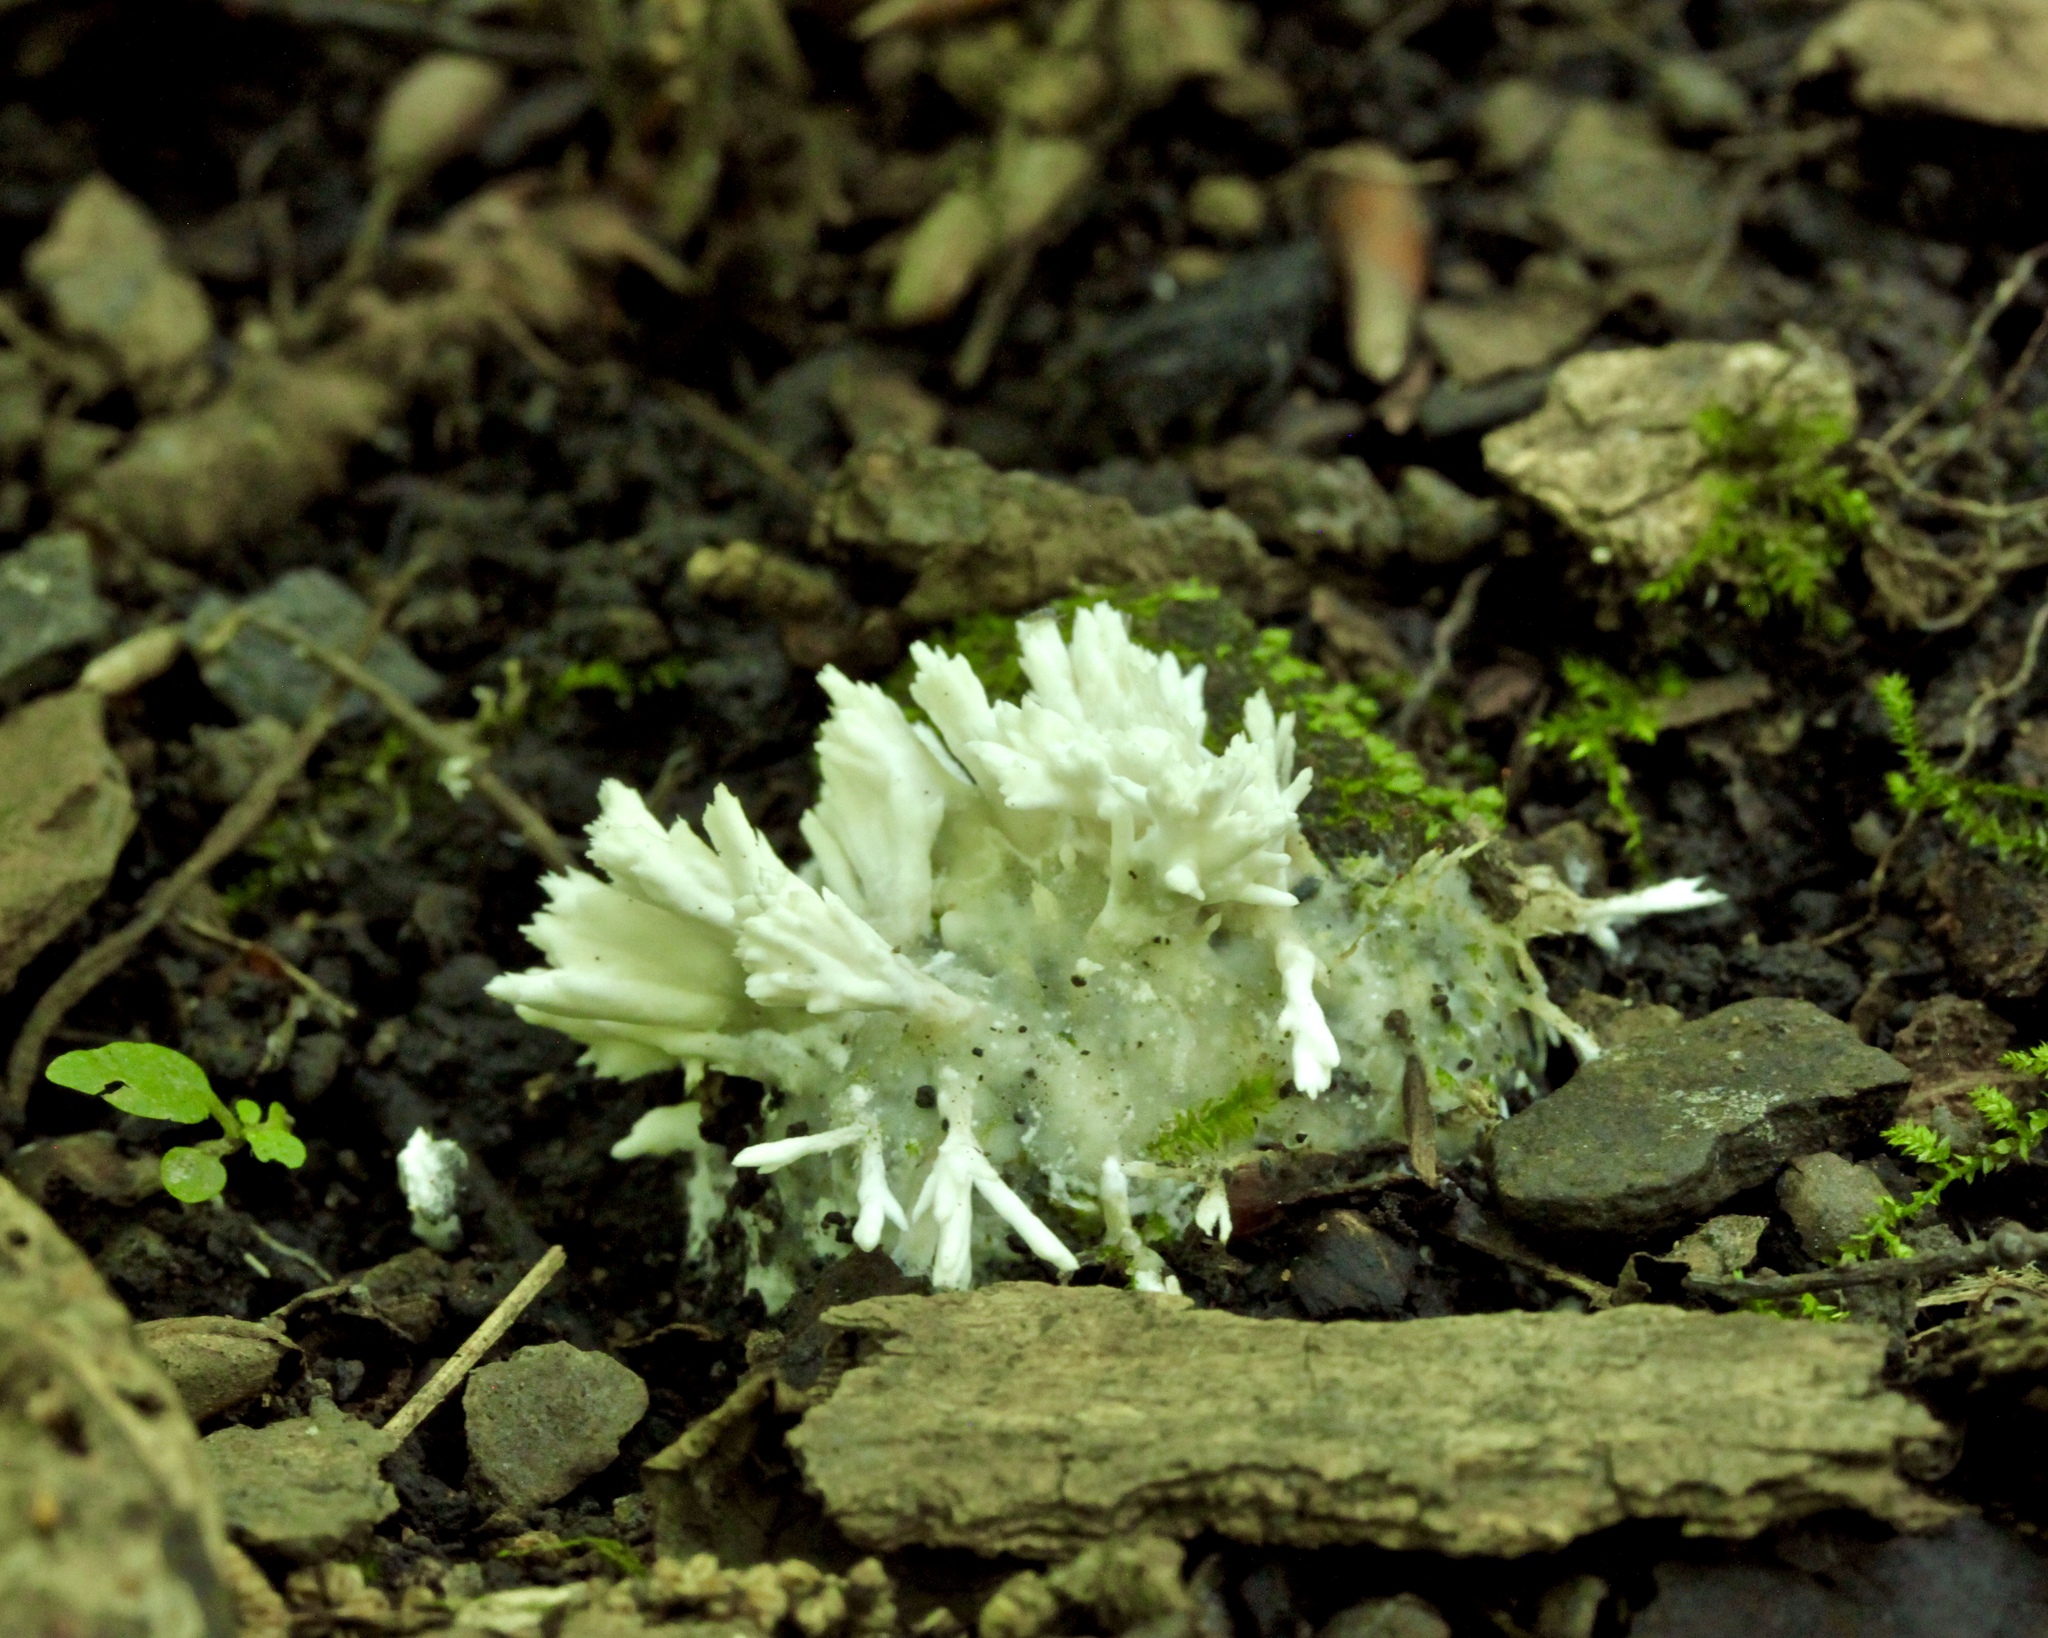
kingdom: Fungi
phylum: Basidiomycota
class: Agaricomycetes
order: Sebacinales
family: Sebacinaceae
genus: Sebacina
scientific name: Sebacina schweinitzii
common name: Jellied false coral fungus
